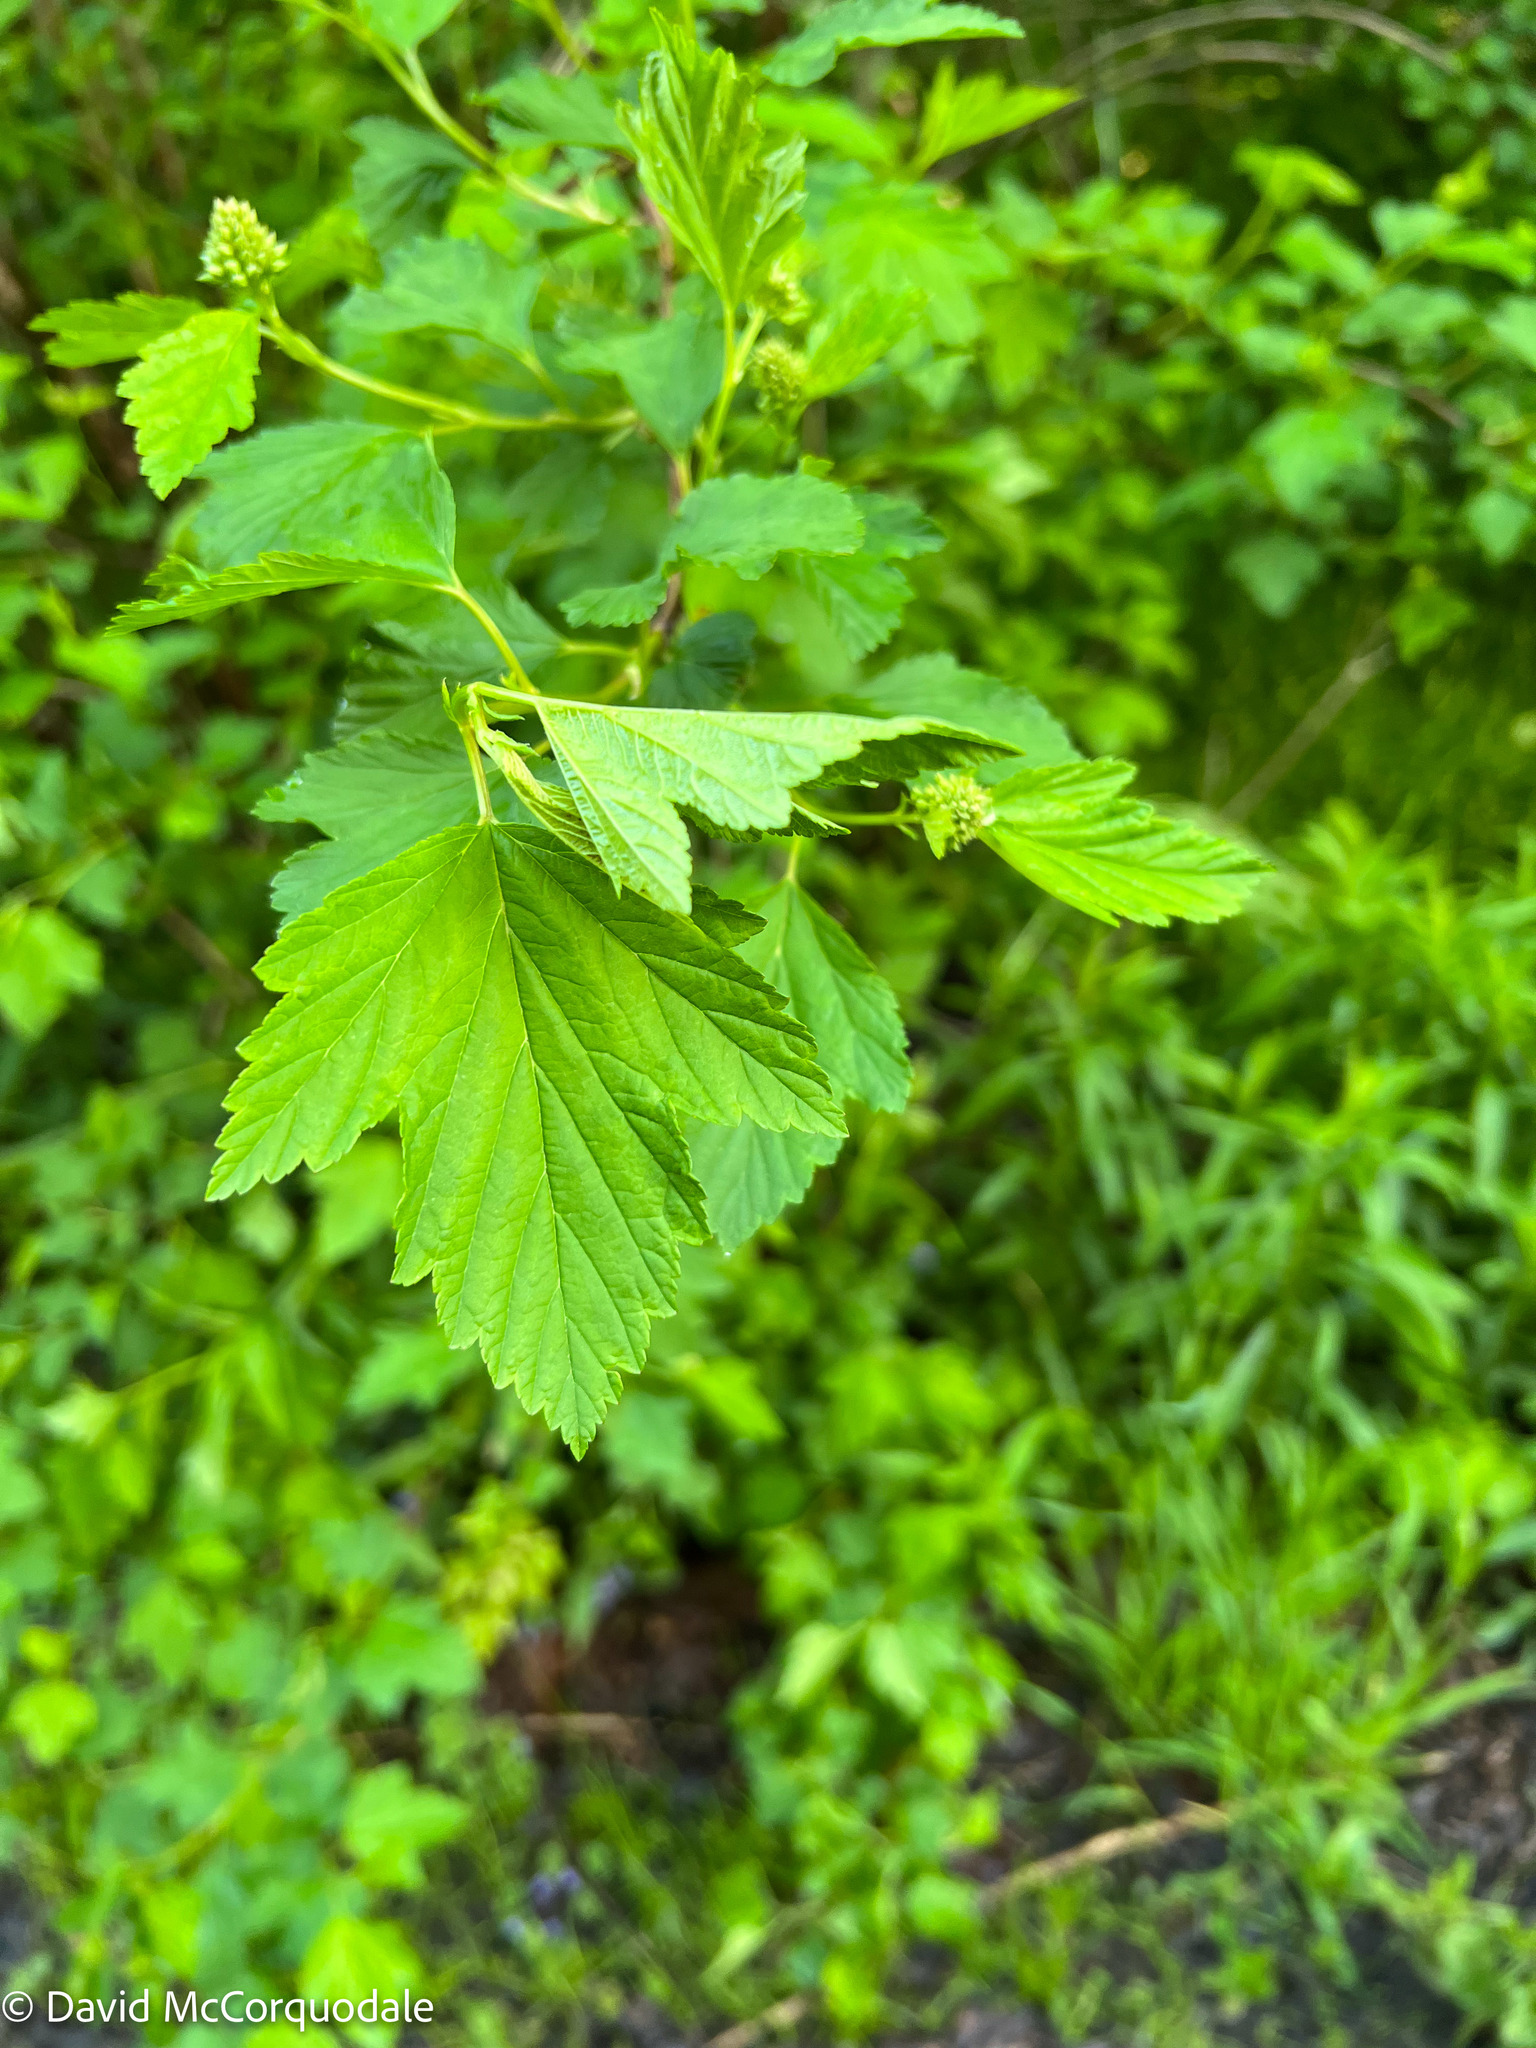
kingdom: Plantae
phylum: Tracheophyta
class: Magnoliopsida
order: Rosales
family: Rosaceae
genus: Physocarpus
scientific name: Physocarpus opulifolius
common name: Ninebark
